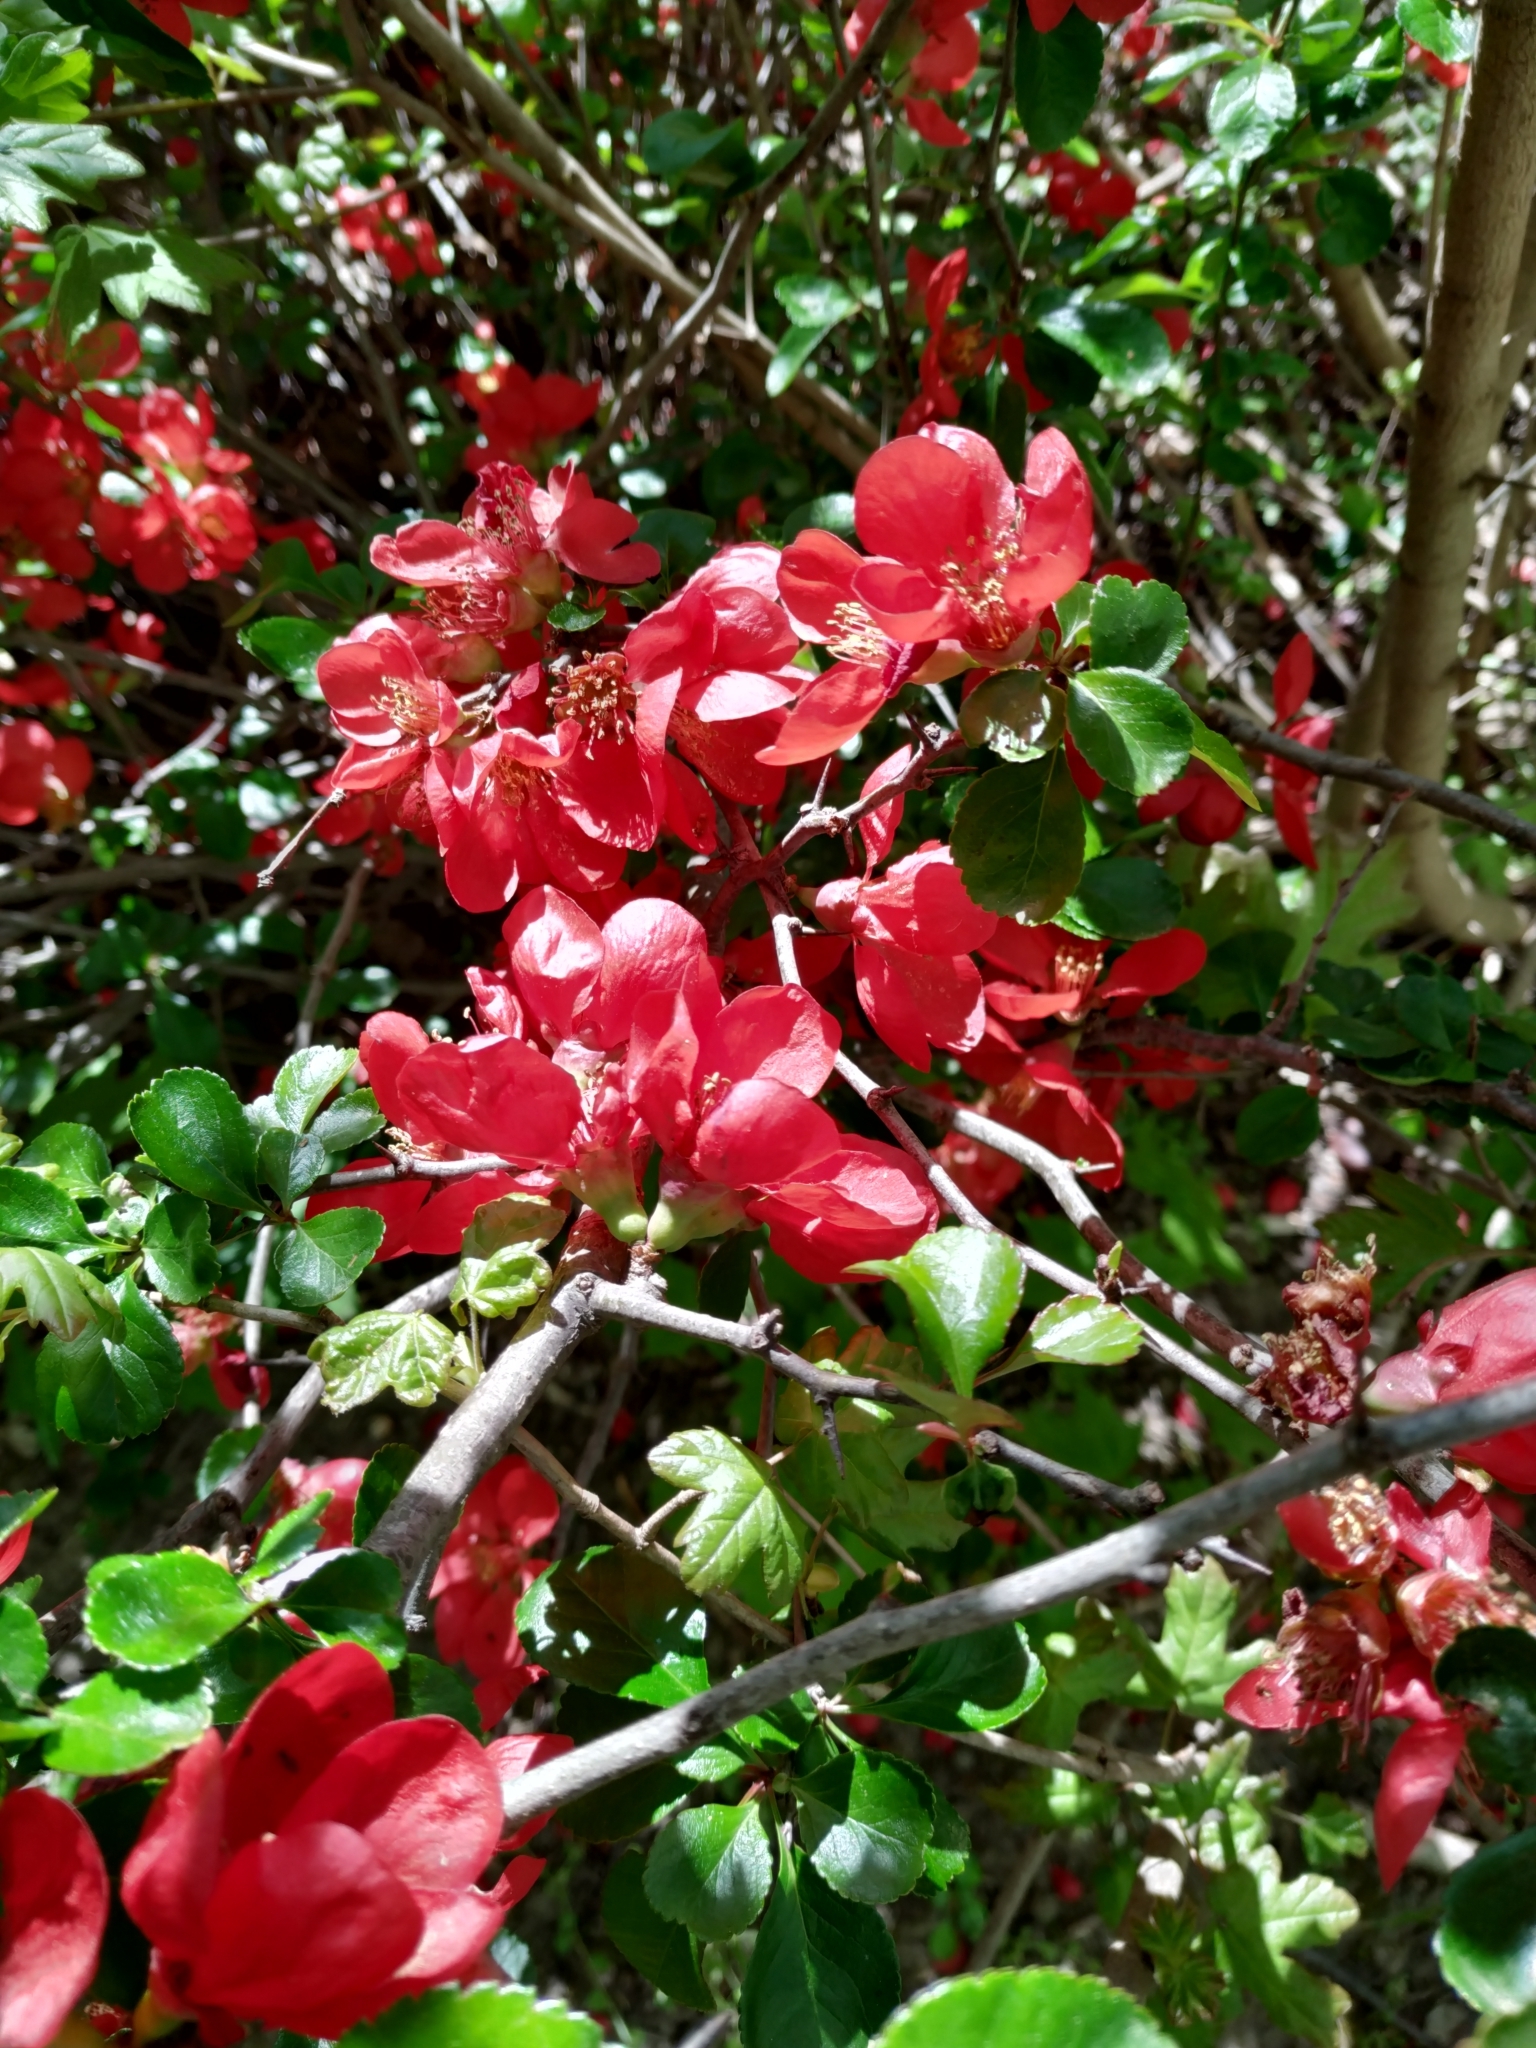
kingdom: Plantae
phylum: Tracheophyta
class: Magnoliopsida
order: Rosales
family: Rosaceae
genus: Chaenomeles
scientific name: Chaenomeles speciosa
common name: Japanese quince
